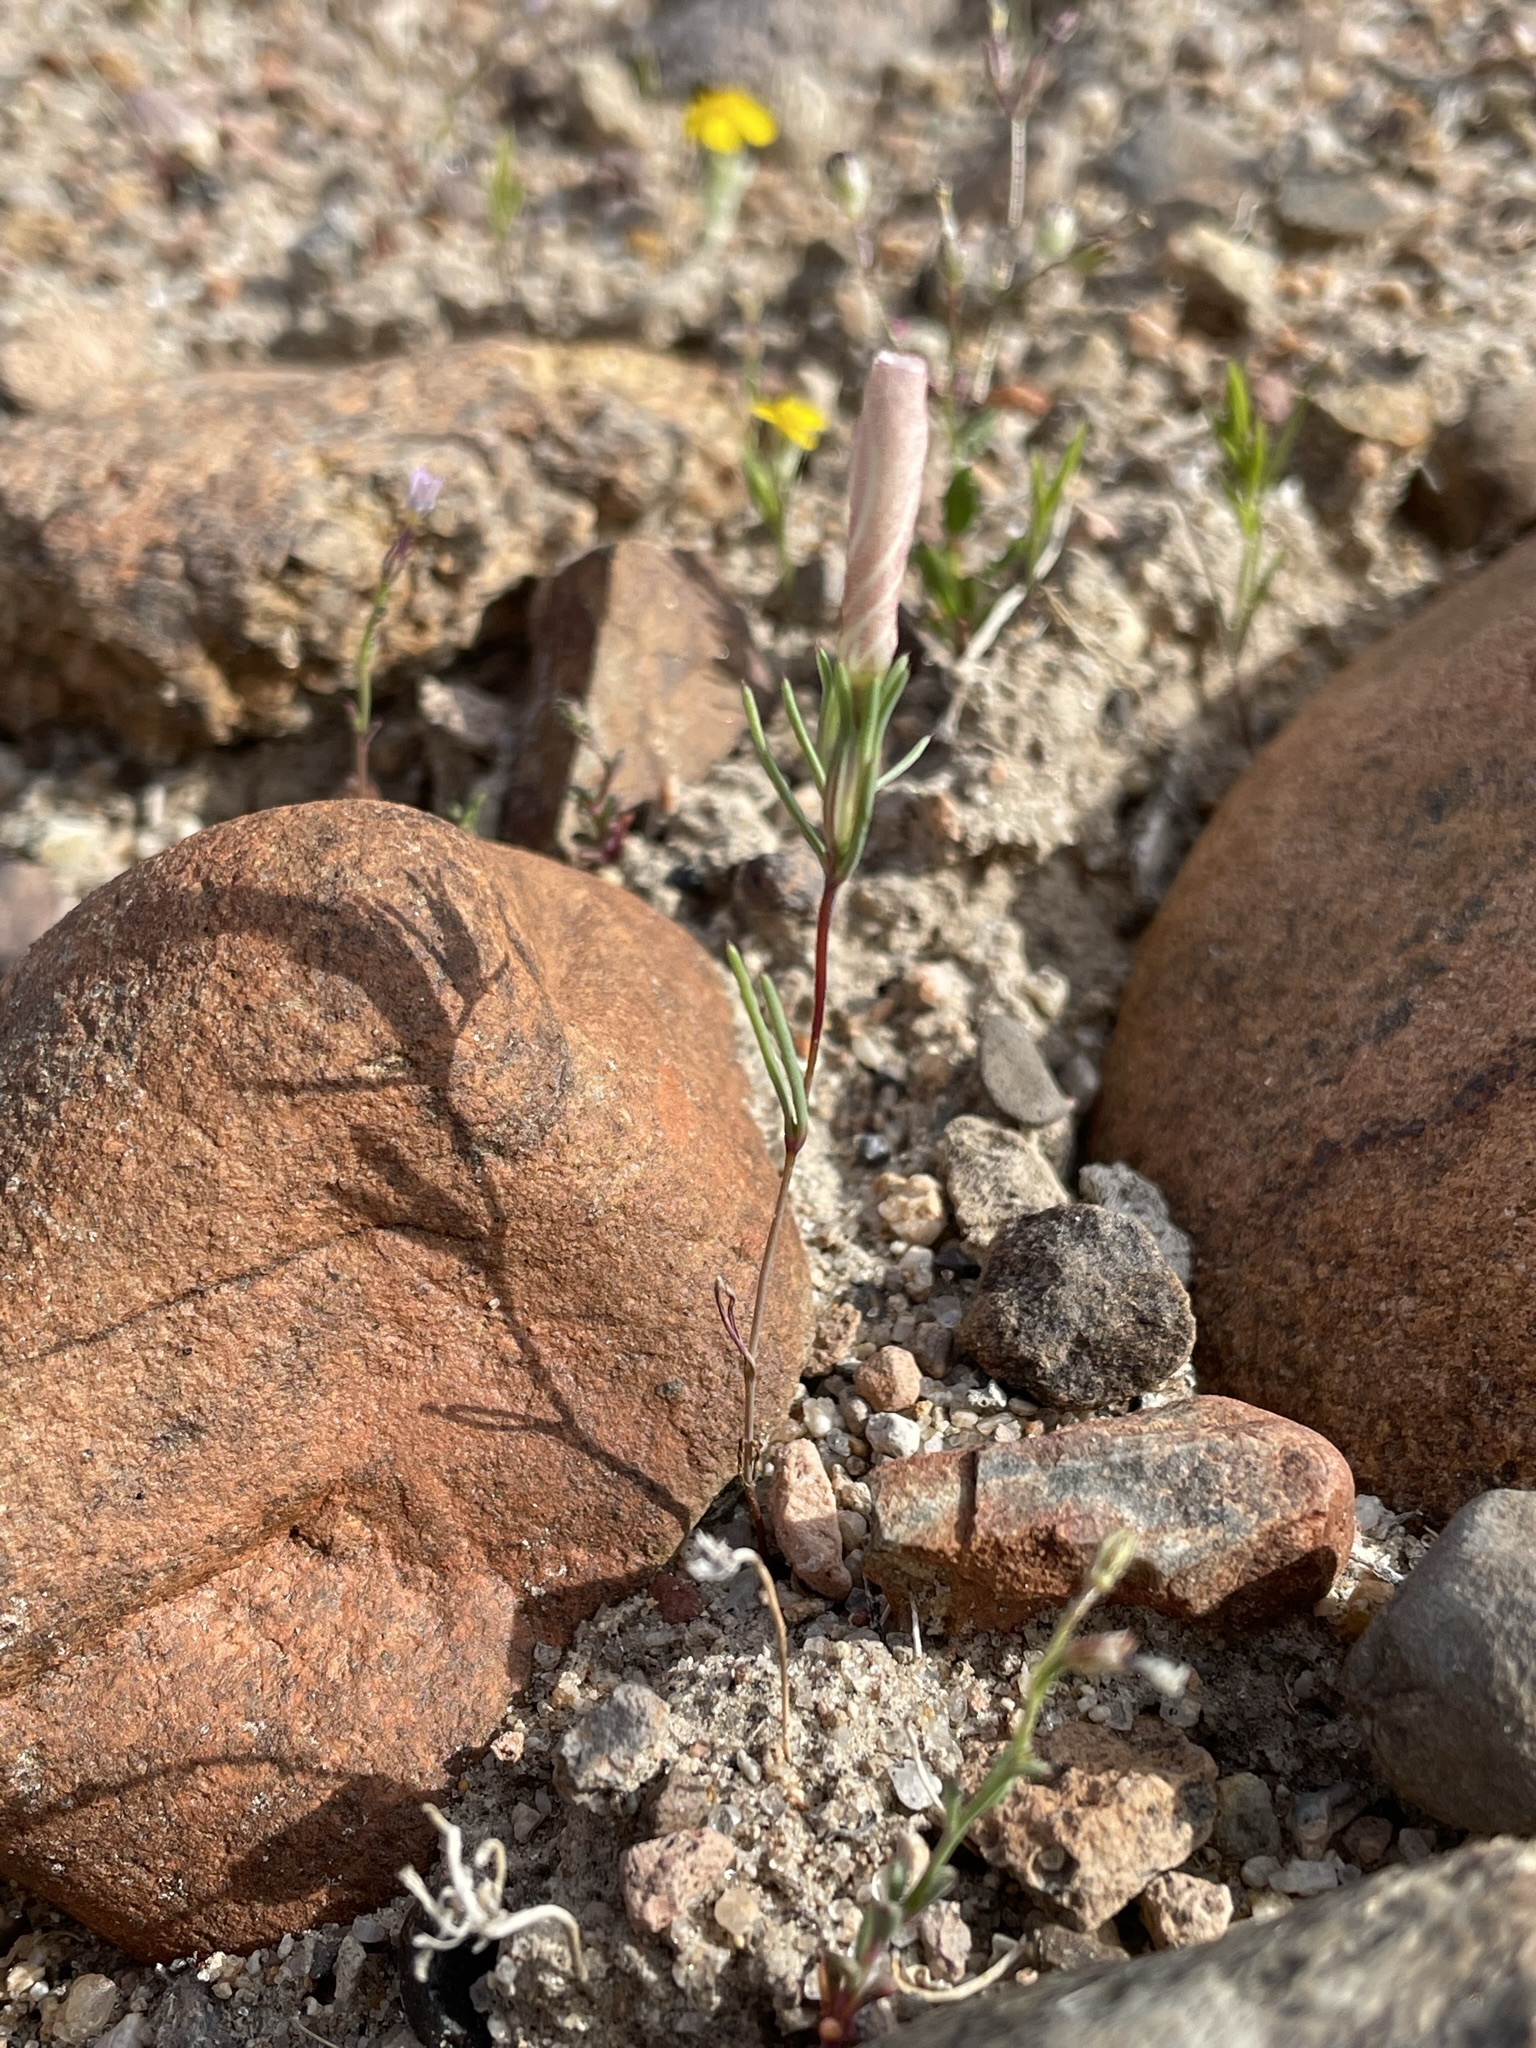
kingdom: Plantae
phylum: Tracheophyta
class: Magnoliopsida
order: Ericales
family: Polemoniaceae
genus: Linanthus
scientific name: Linanthus dichotomus
